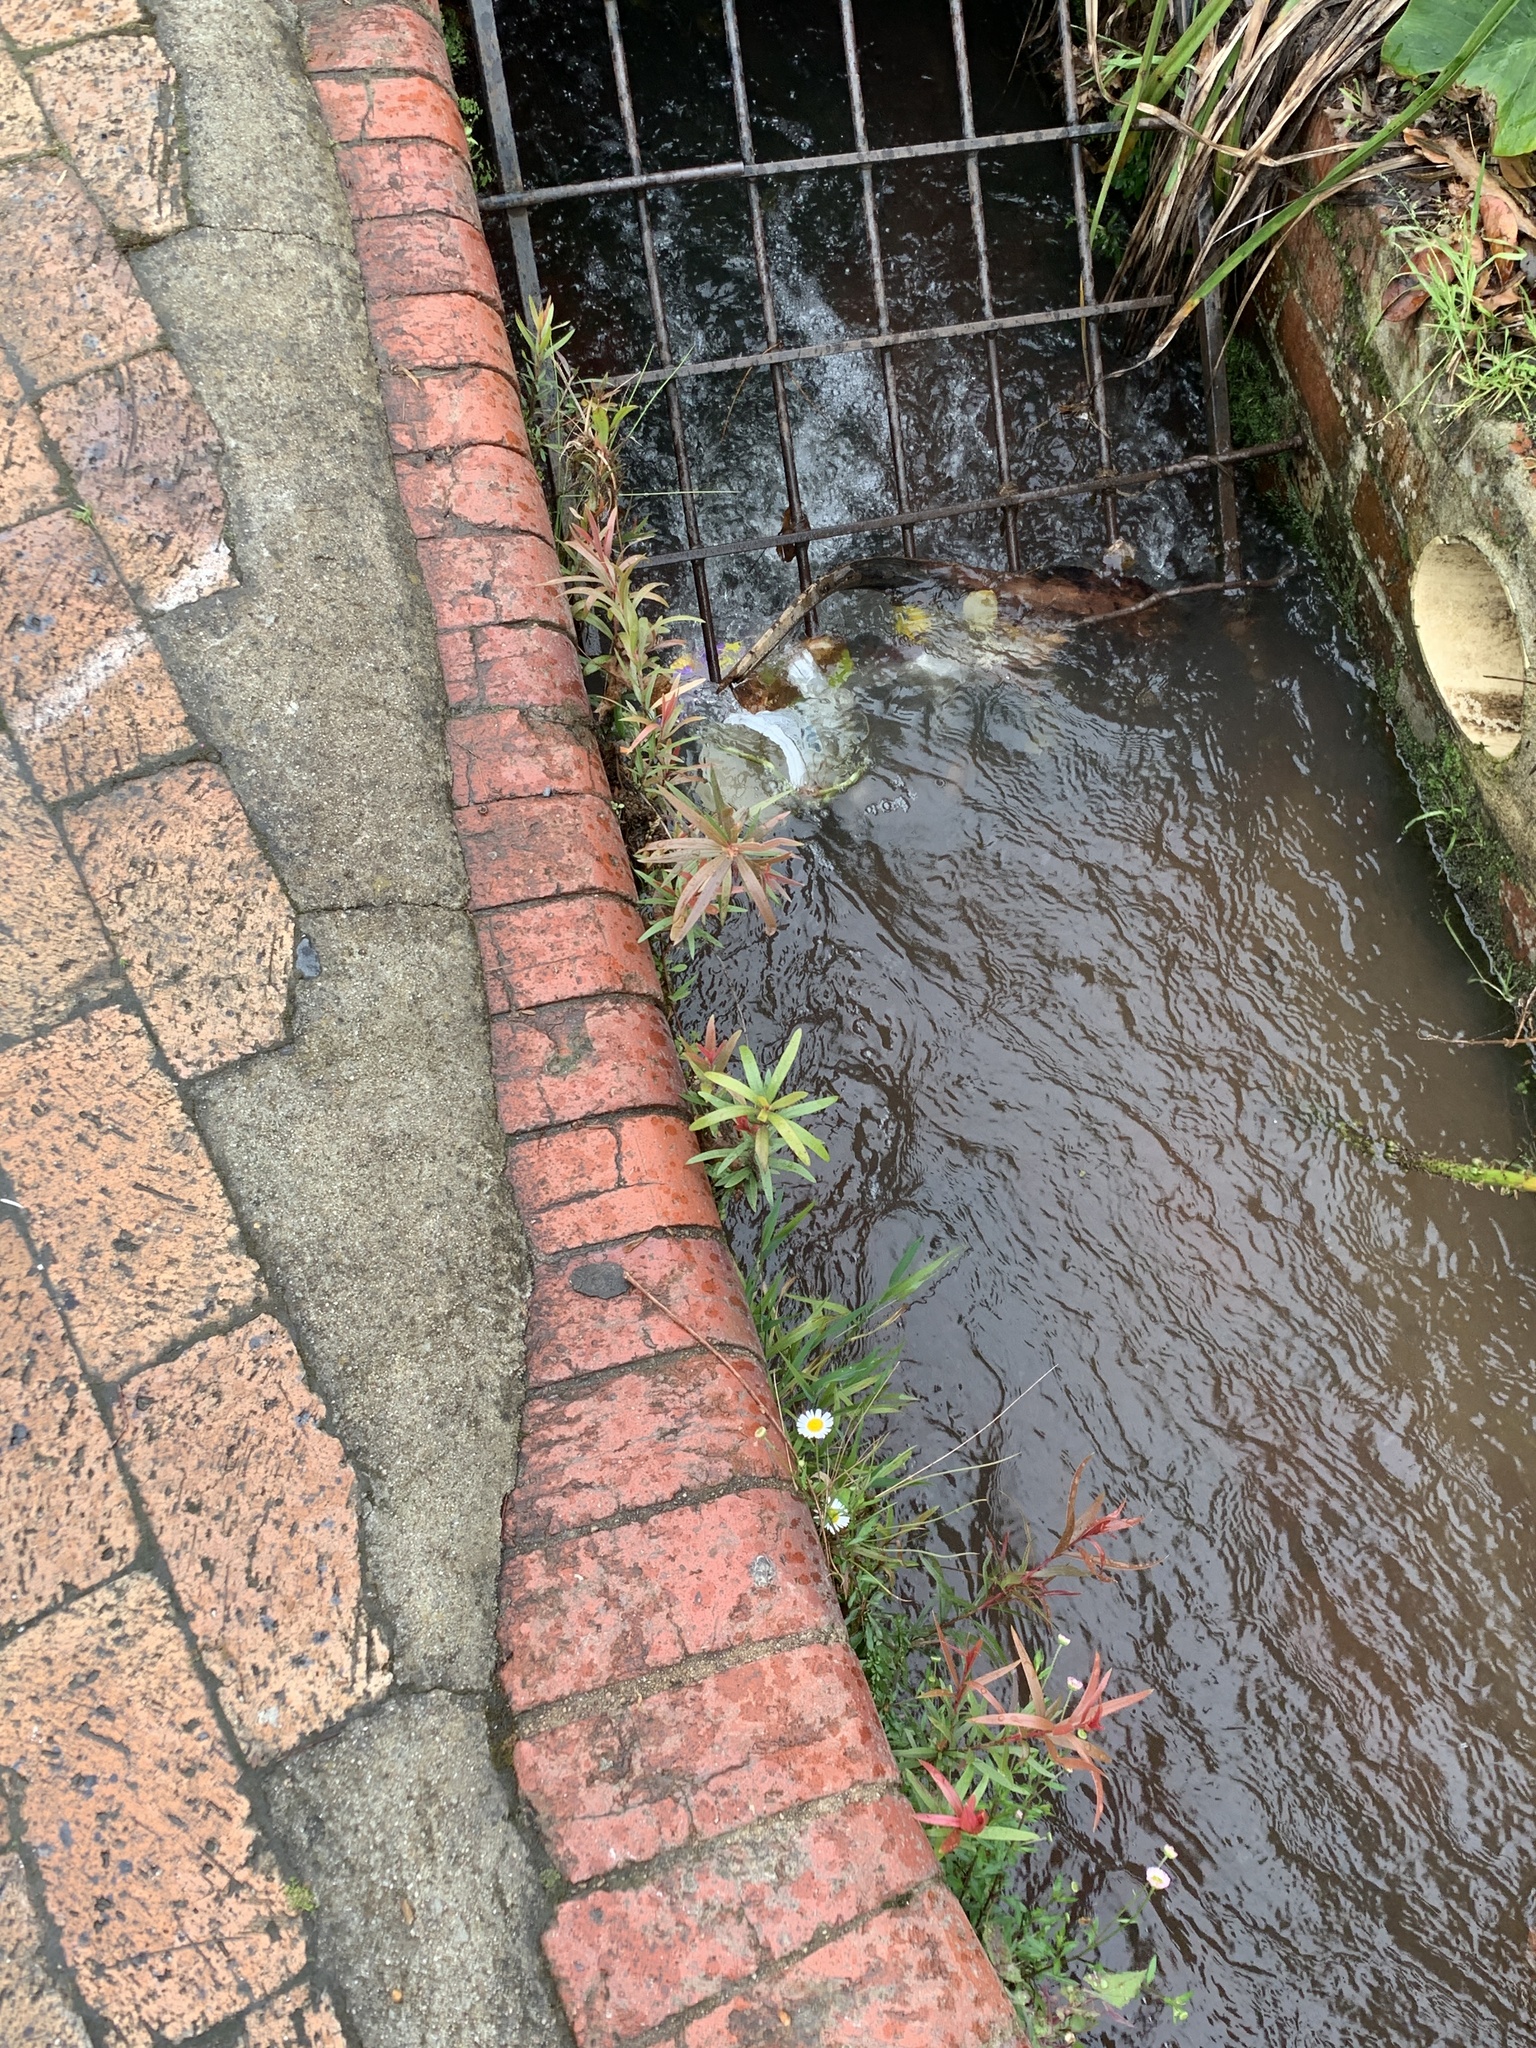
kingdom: Plantae
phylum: Tracheophyta
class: Magnoliopsida
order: Myrtales
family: Myrtaceae
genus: Callistemon
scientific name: Callistemon viminalis
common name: Drooping bottlebrush
